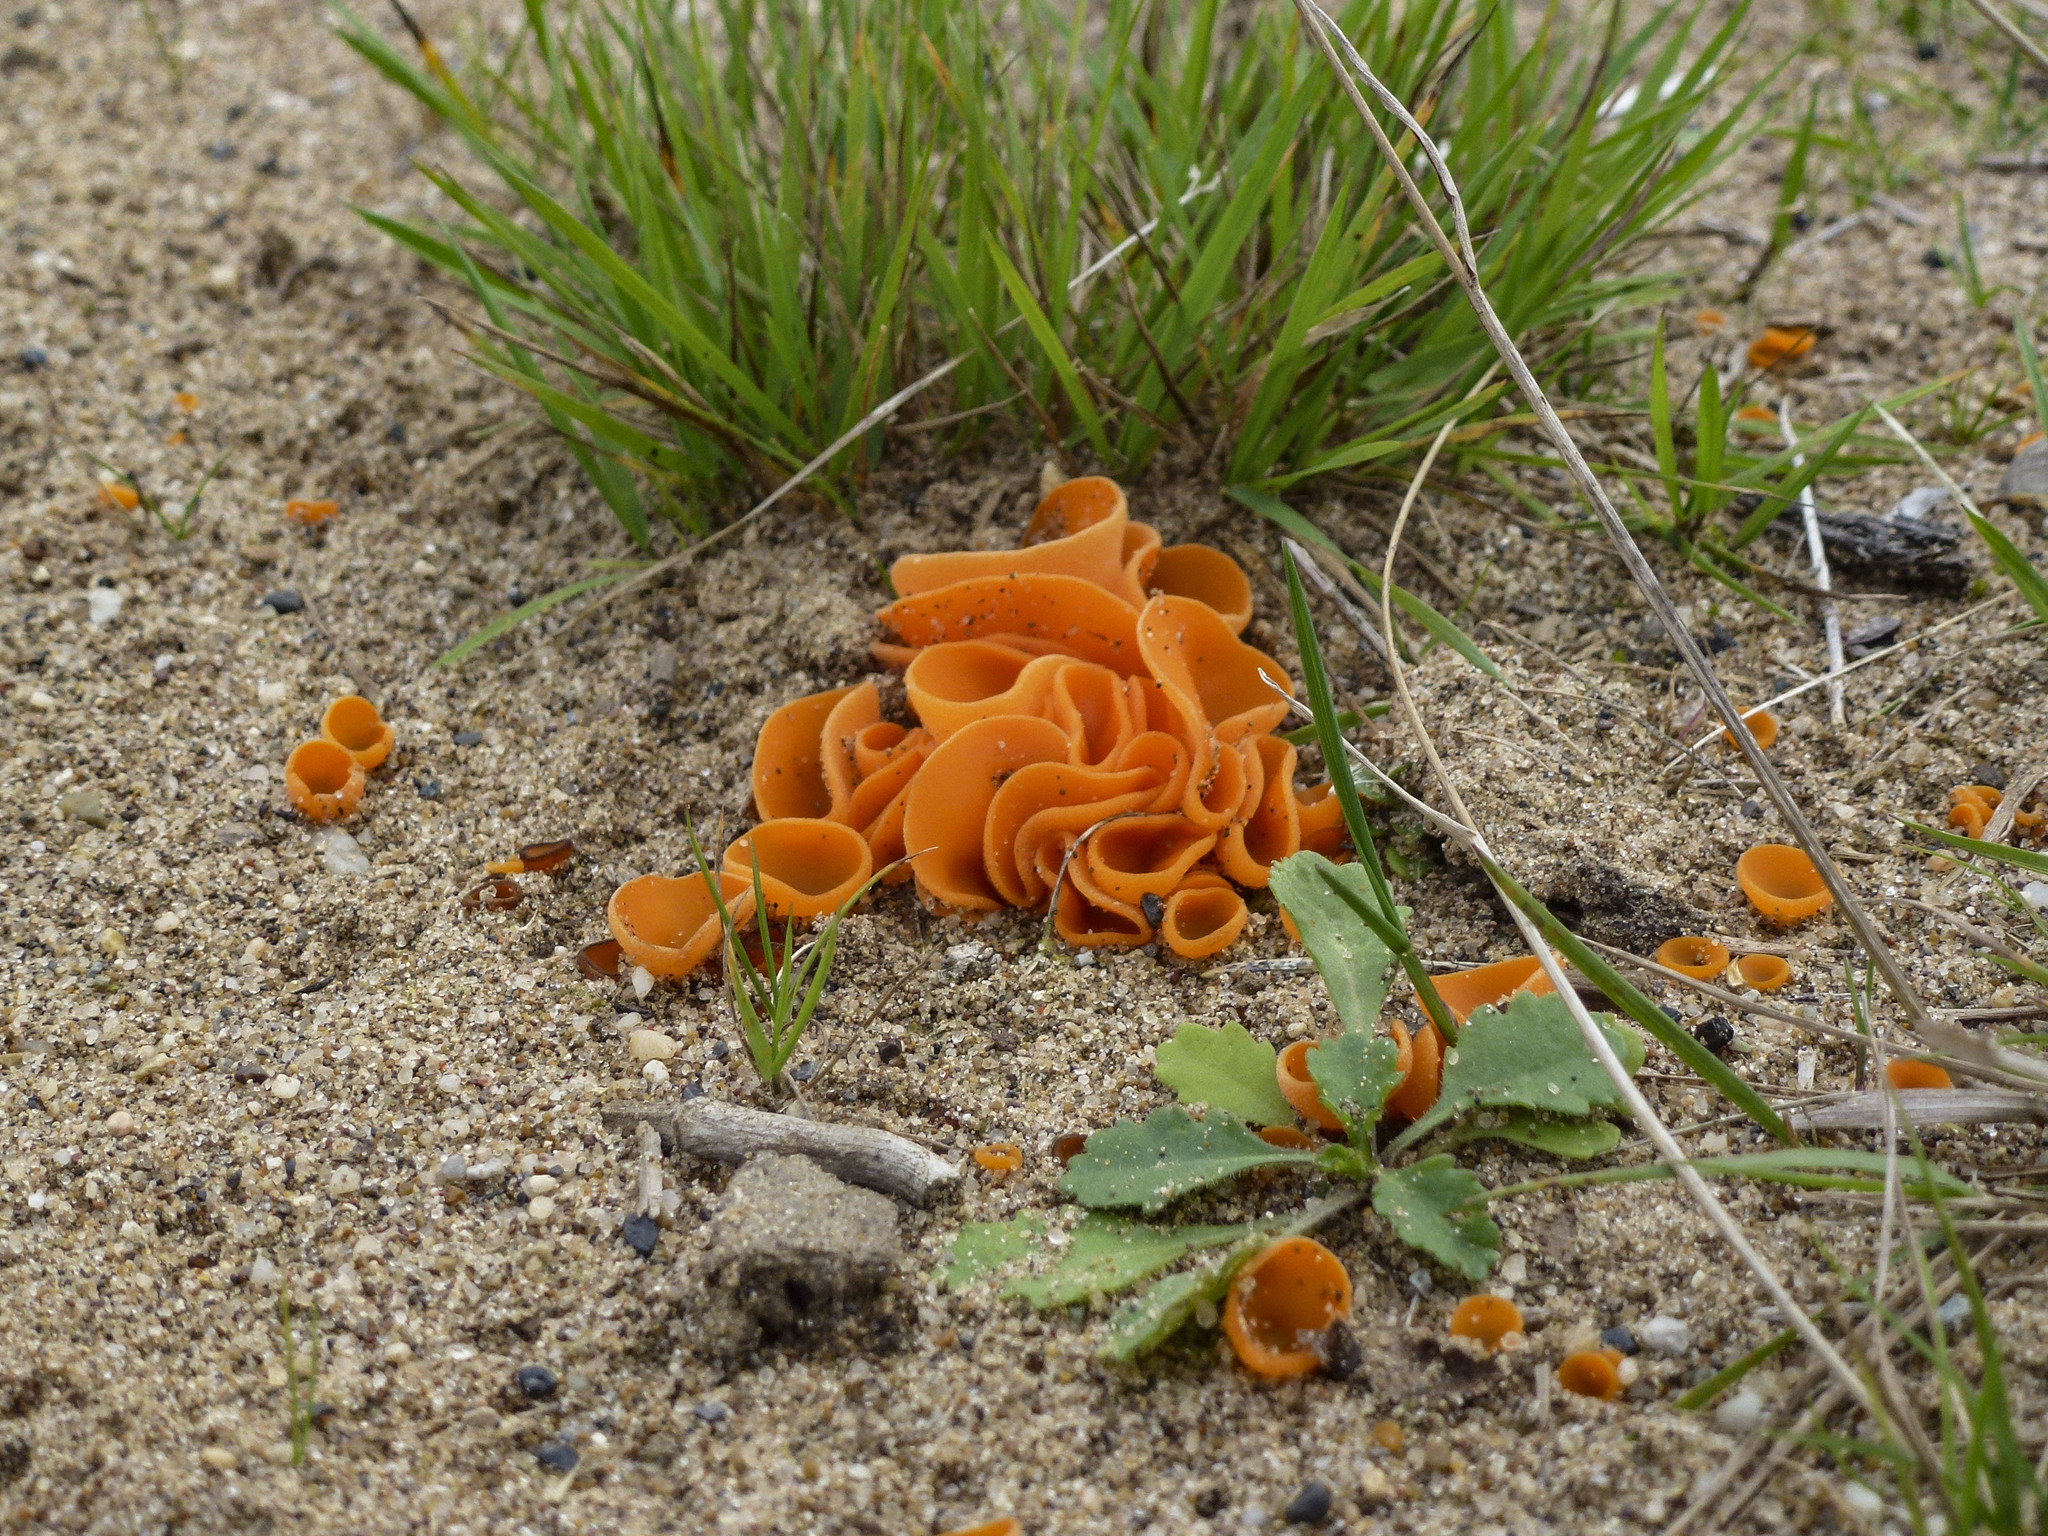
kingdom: Fungi
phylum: Ascomycota
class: Pezizomycetes
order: Pezizales
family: Pyronemataceae
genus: Aleuria
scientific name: Aleuria aurantia
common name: Orange peel fungus
